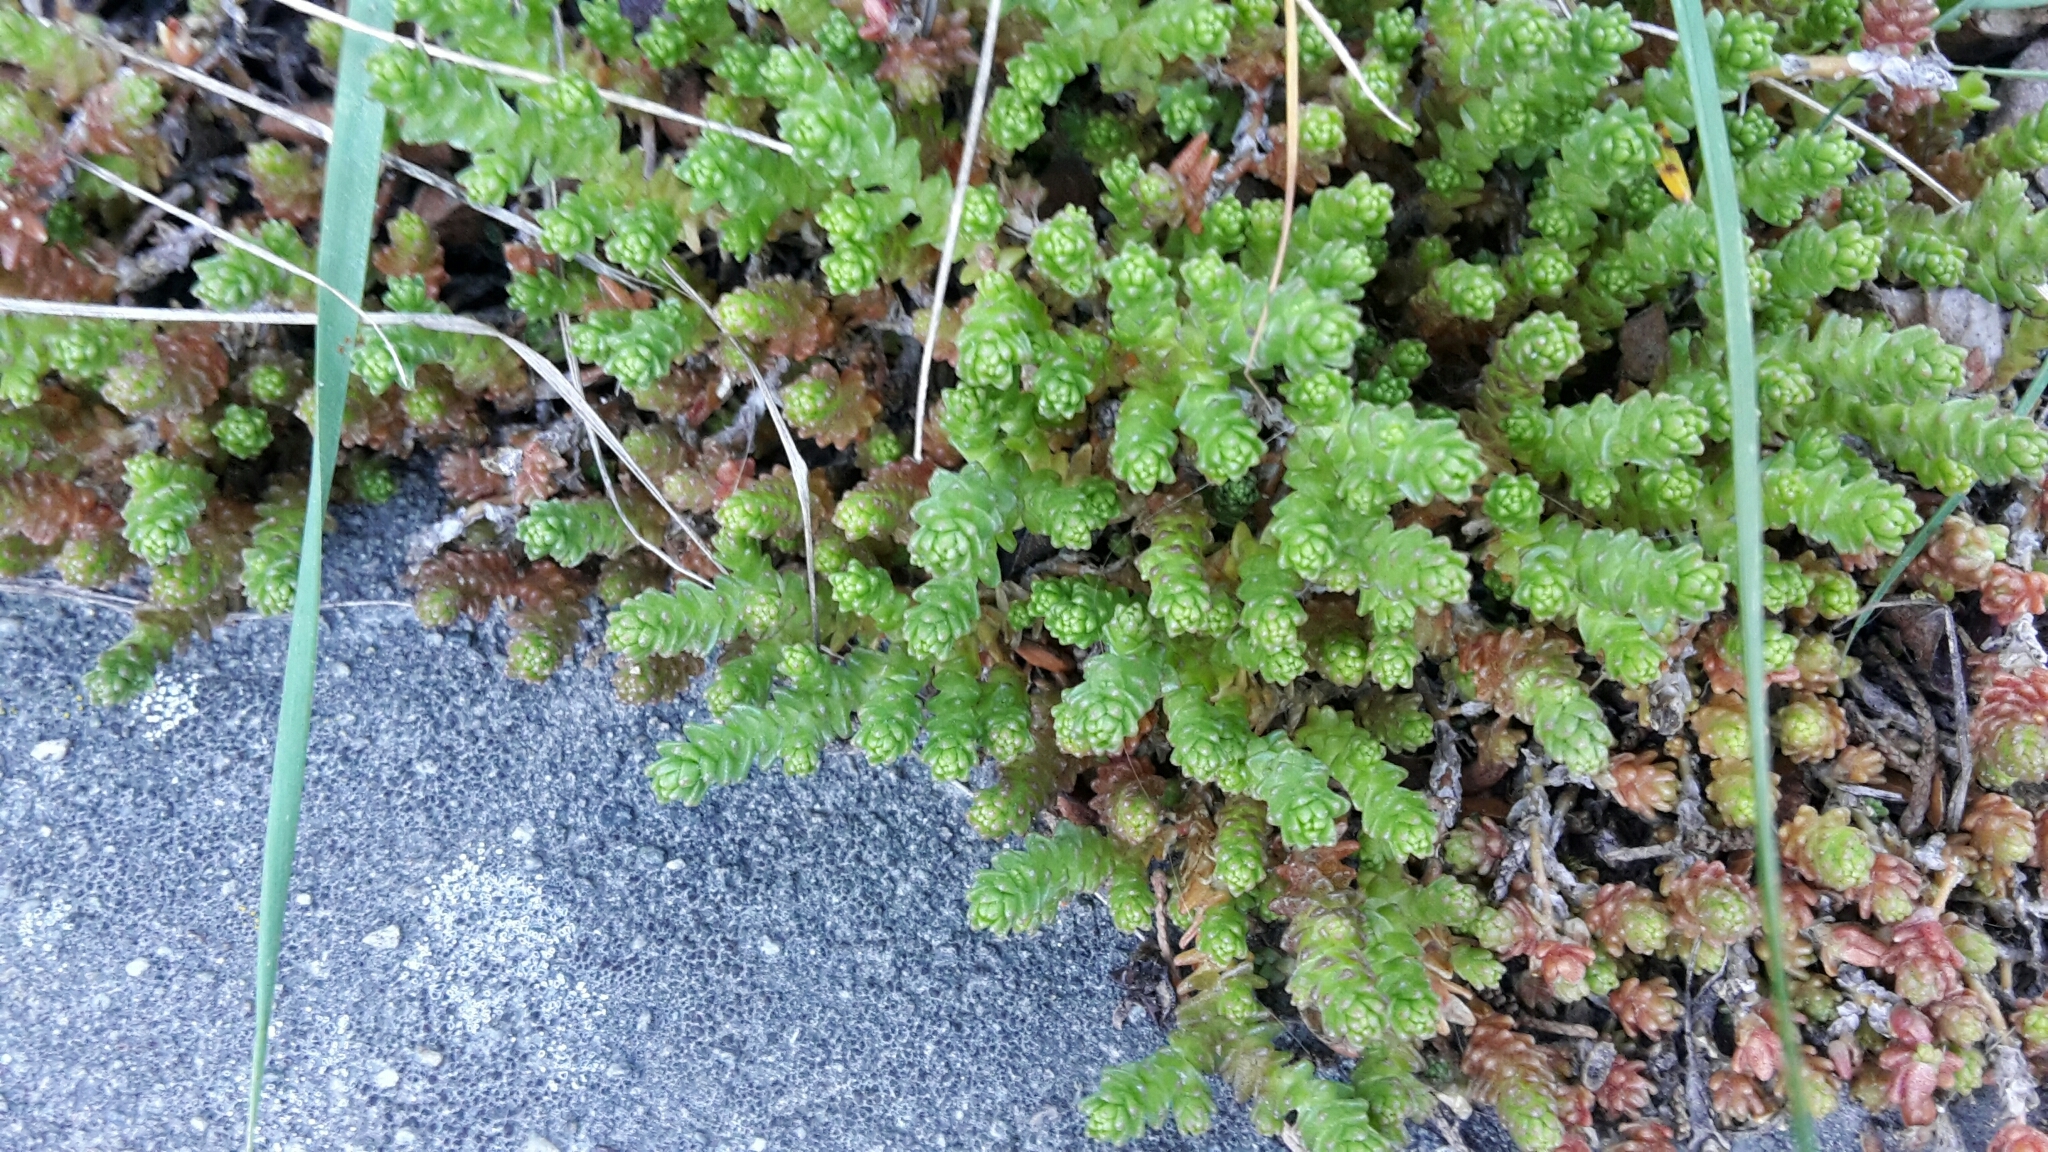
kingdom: Plantae
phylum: Tracheophyta
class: Magnoliopsida
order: Saxifragales
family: Crassulaceae
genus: Sedum
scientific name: Sedum acre
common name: Biting stonecrop
